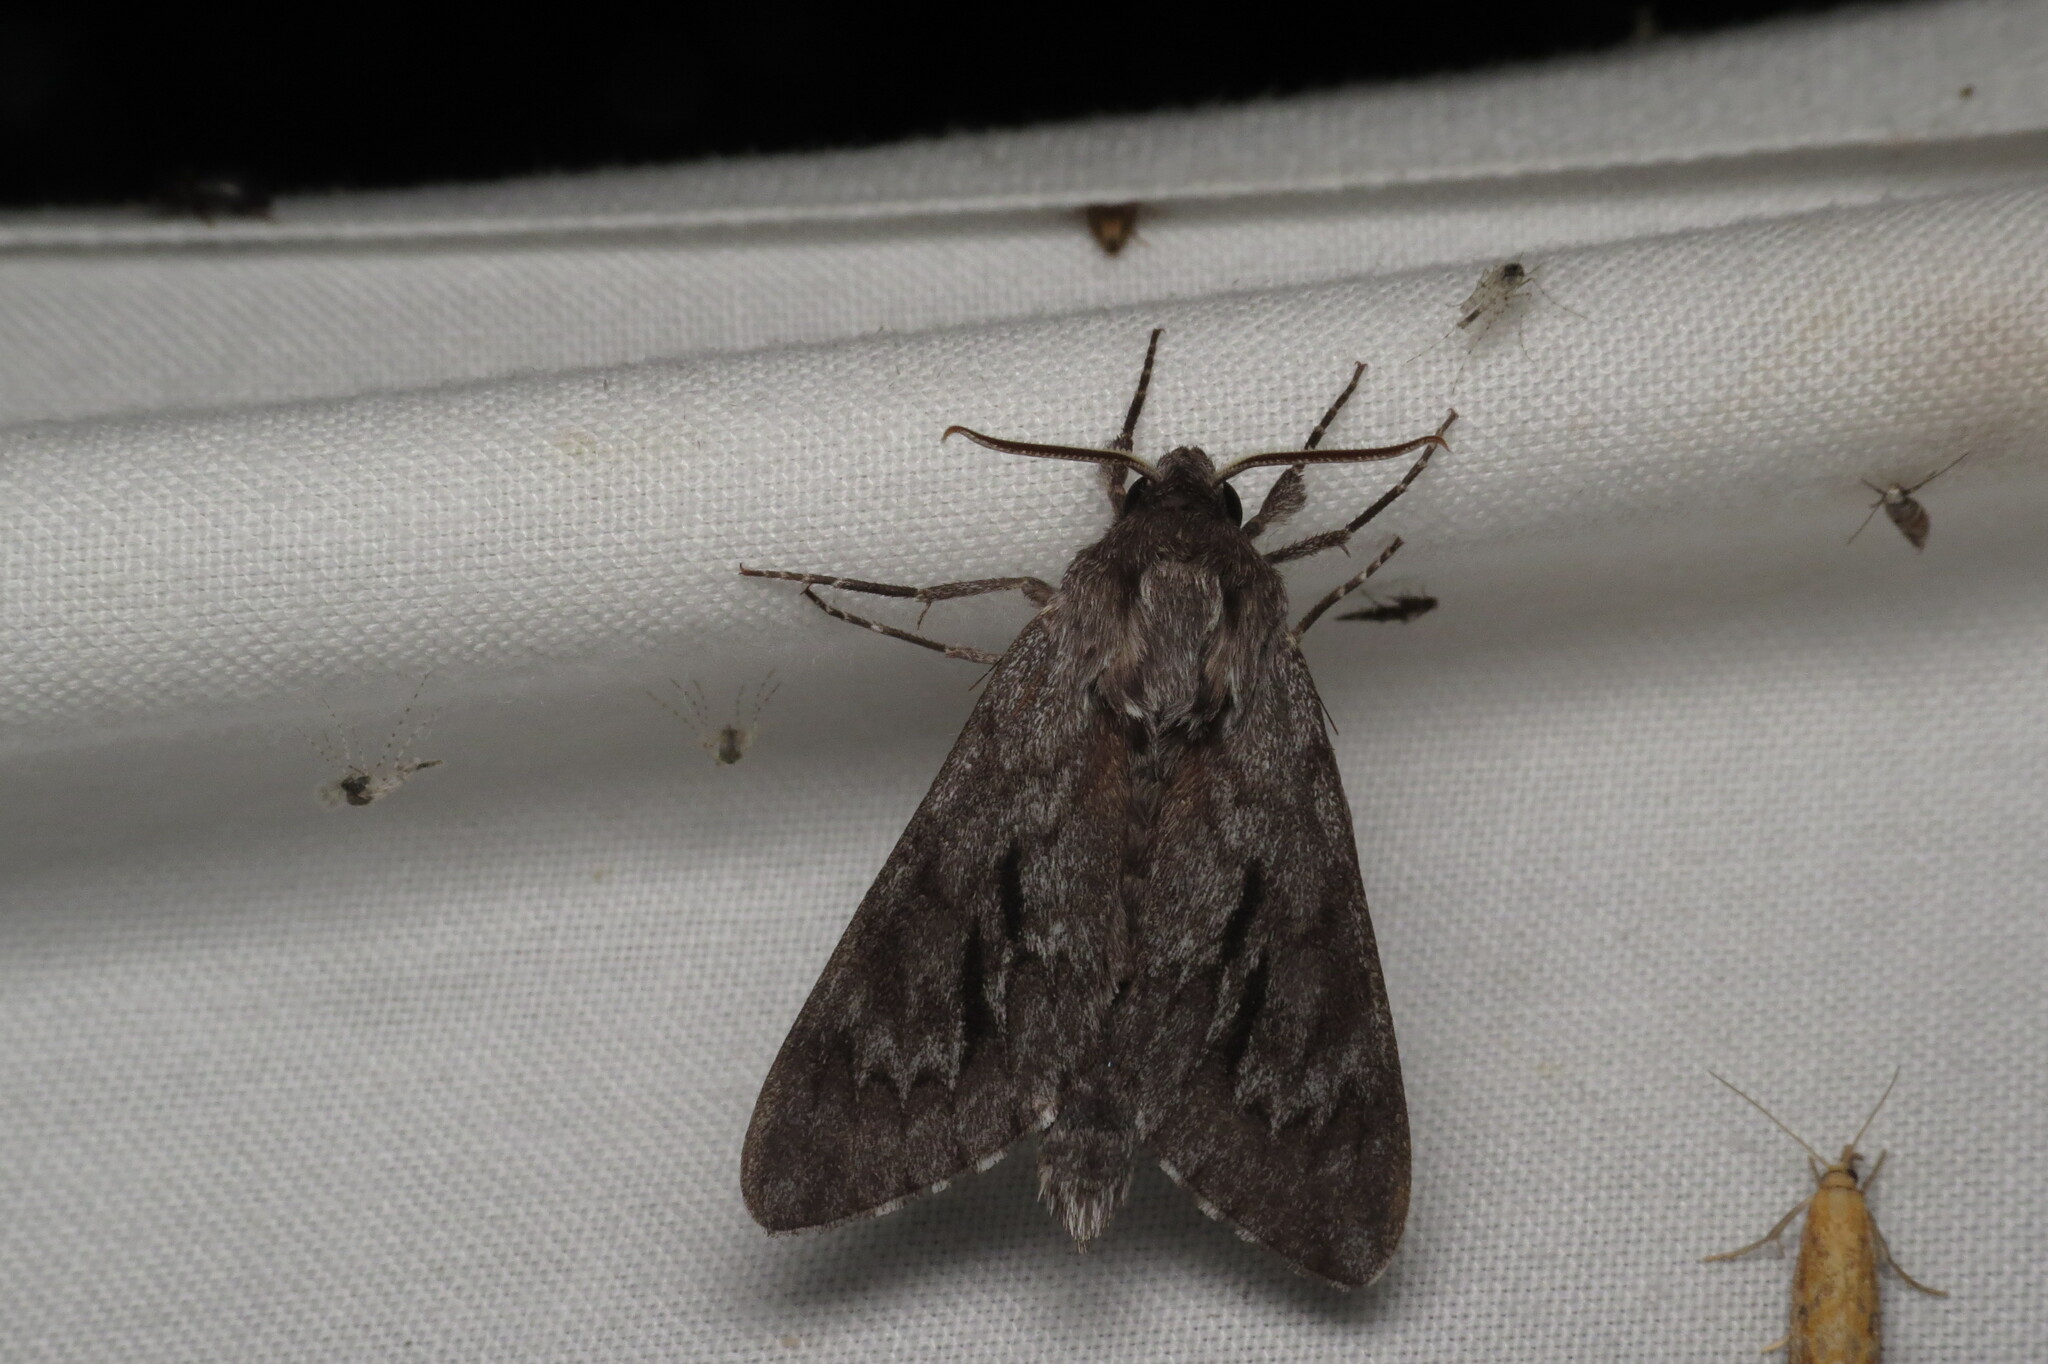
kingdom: Animalia
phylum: Arthropoda
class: Insecta
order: Lepidoptera
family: Sphingidae
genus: Lapara
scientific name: Lapara bombycoides
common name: Northern pine sphinx
